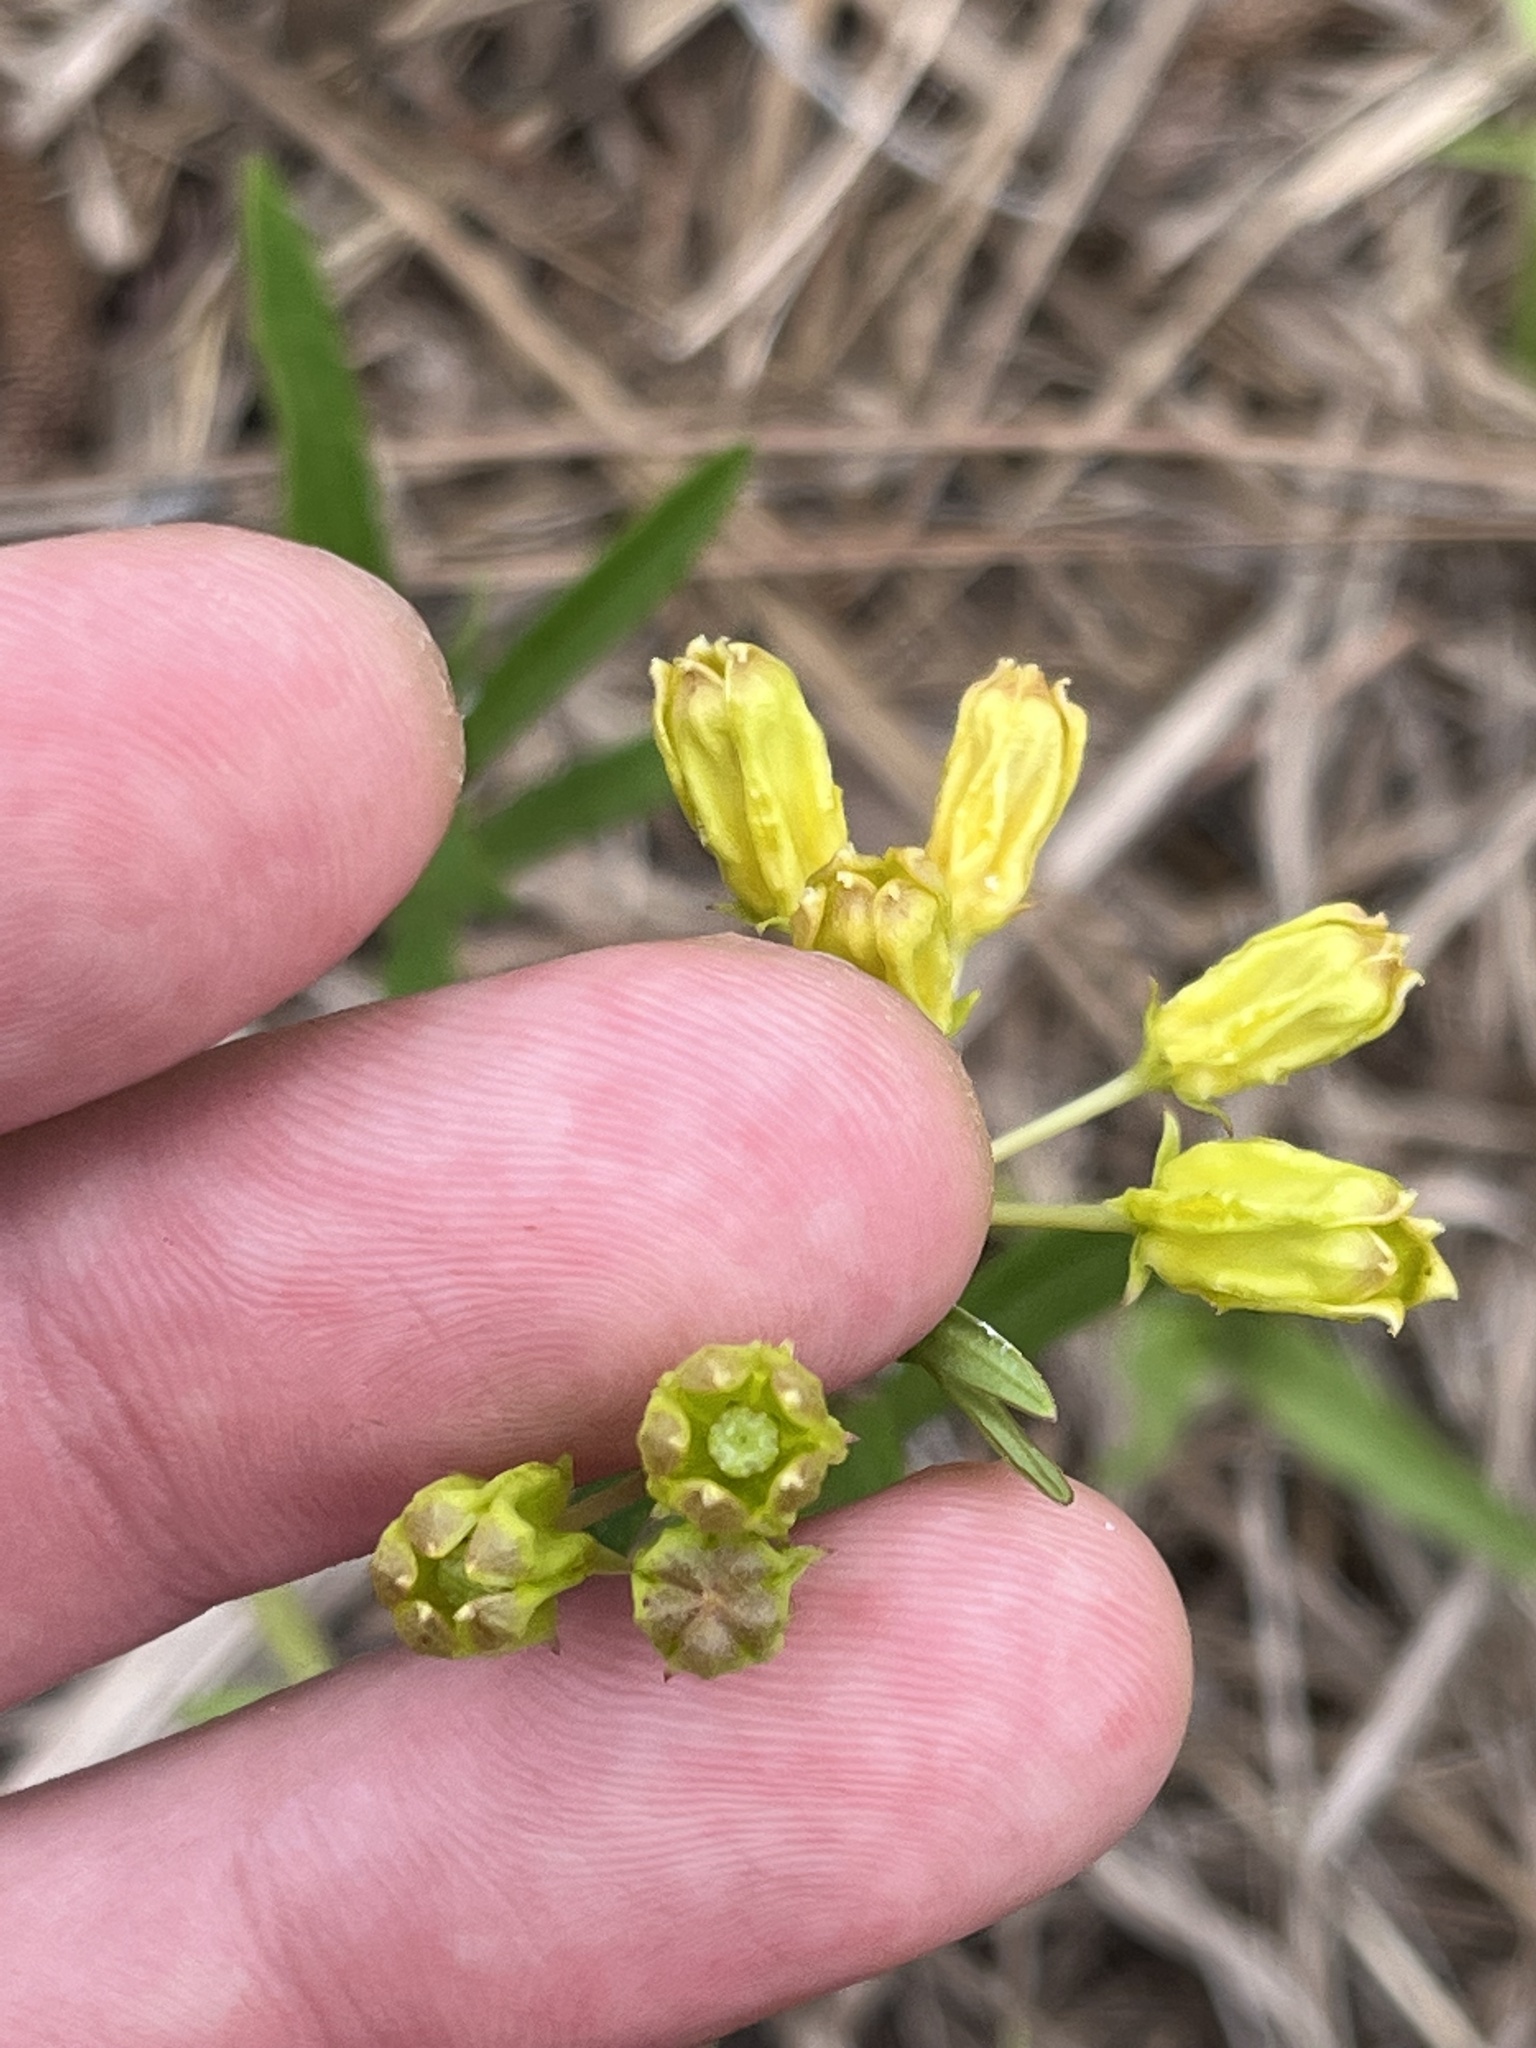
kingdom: Plantae
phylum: Tracheophyta
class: Magnoliopsida
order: Gentianales
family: Apocynaceae
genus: Asclepias
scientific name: Asclepias pedicellata
